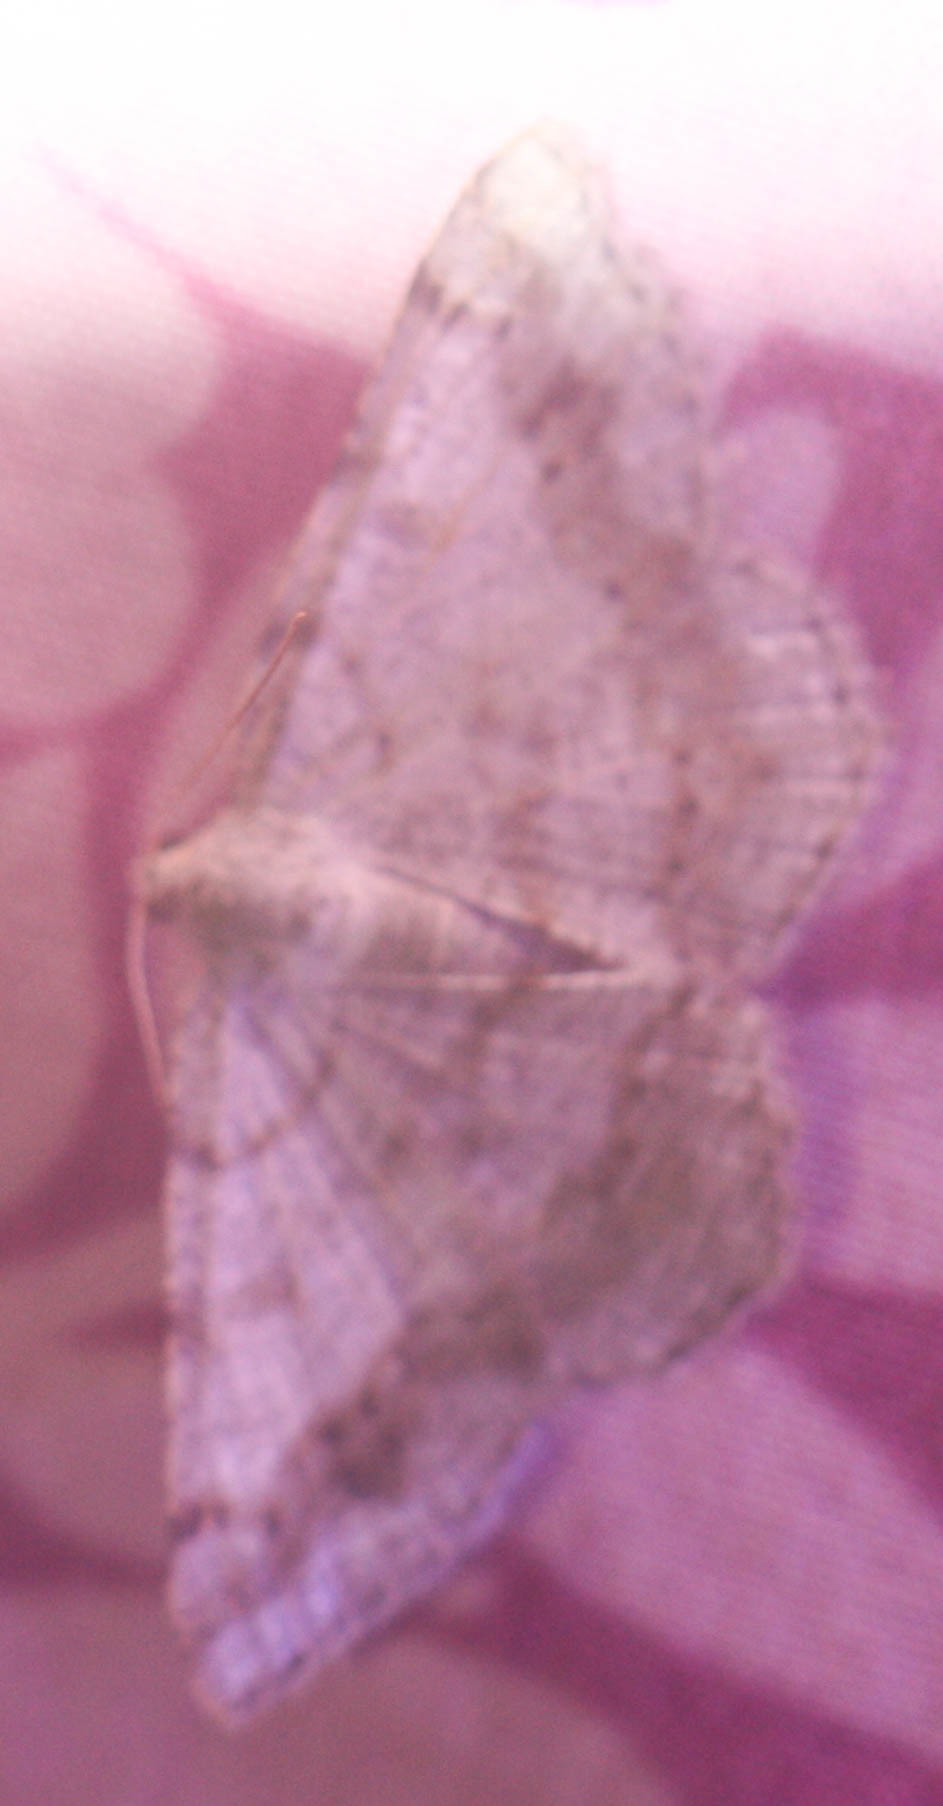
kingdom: Animalia
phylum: Arthropoda
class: Insecta
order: Lepidoptera
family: Geometridae
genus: Digrammia
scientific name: Digrammia ocellinata
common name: Faint-spotted angle
